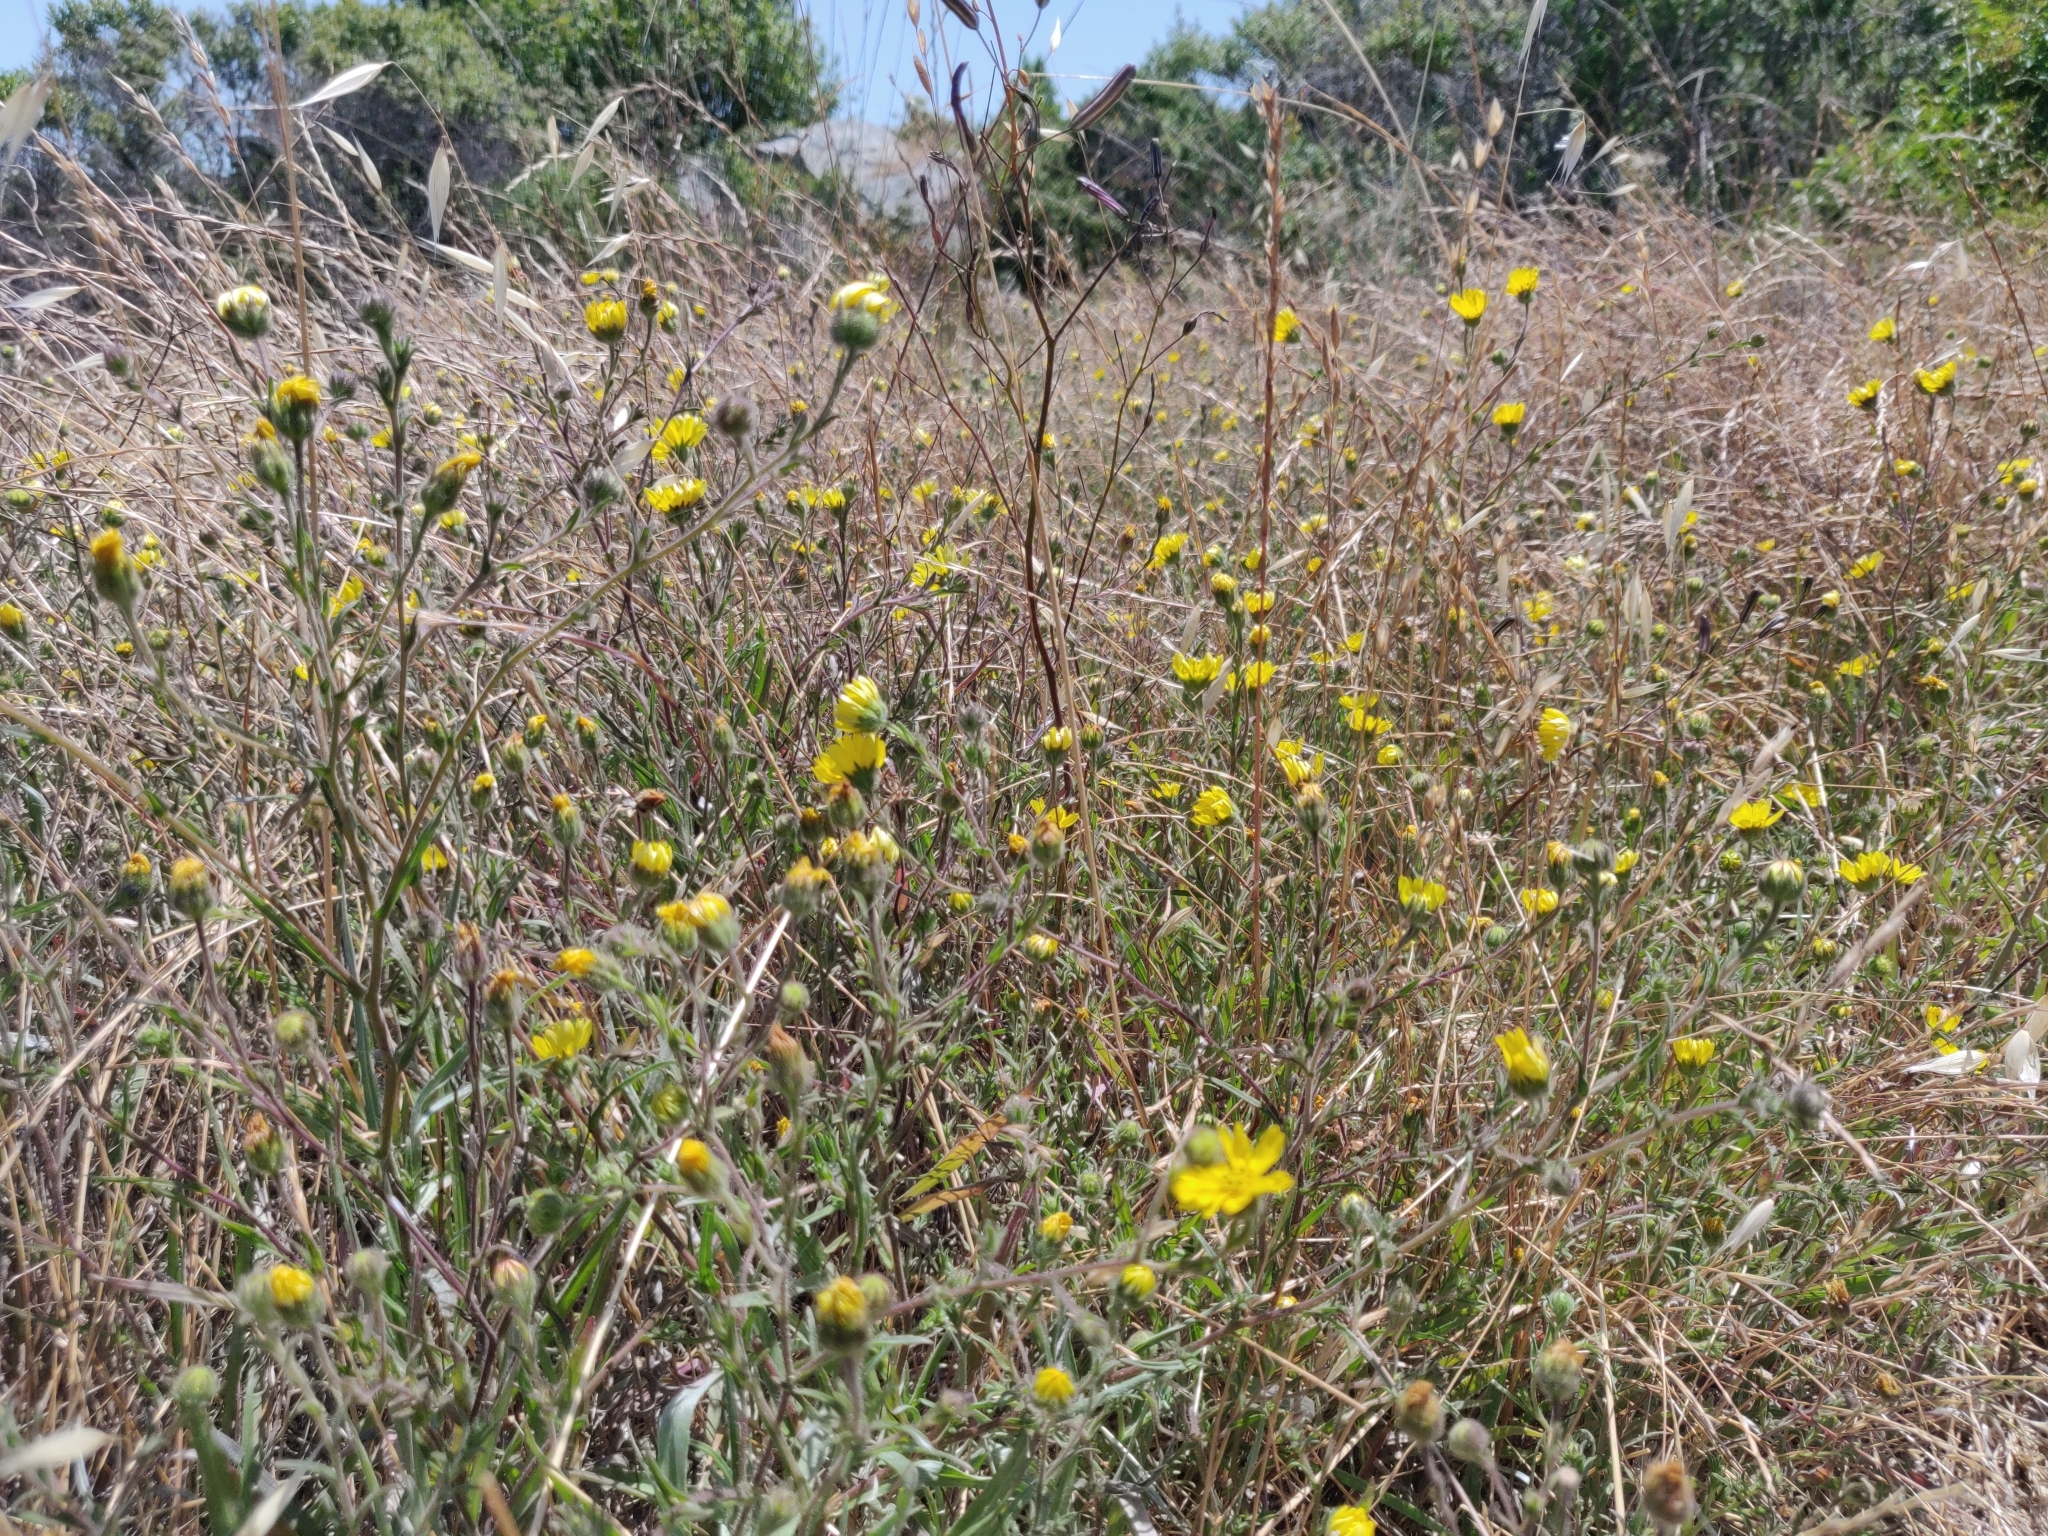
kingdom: Plantae
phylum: Tracheophyta
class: Magnoliopsida
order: Asterales
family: Asteraceae
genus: Hemizonia
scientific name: Hemizonia congesta
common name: Hayfield tarweed
